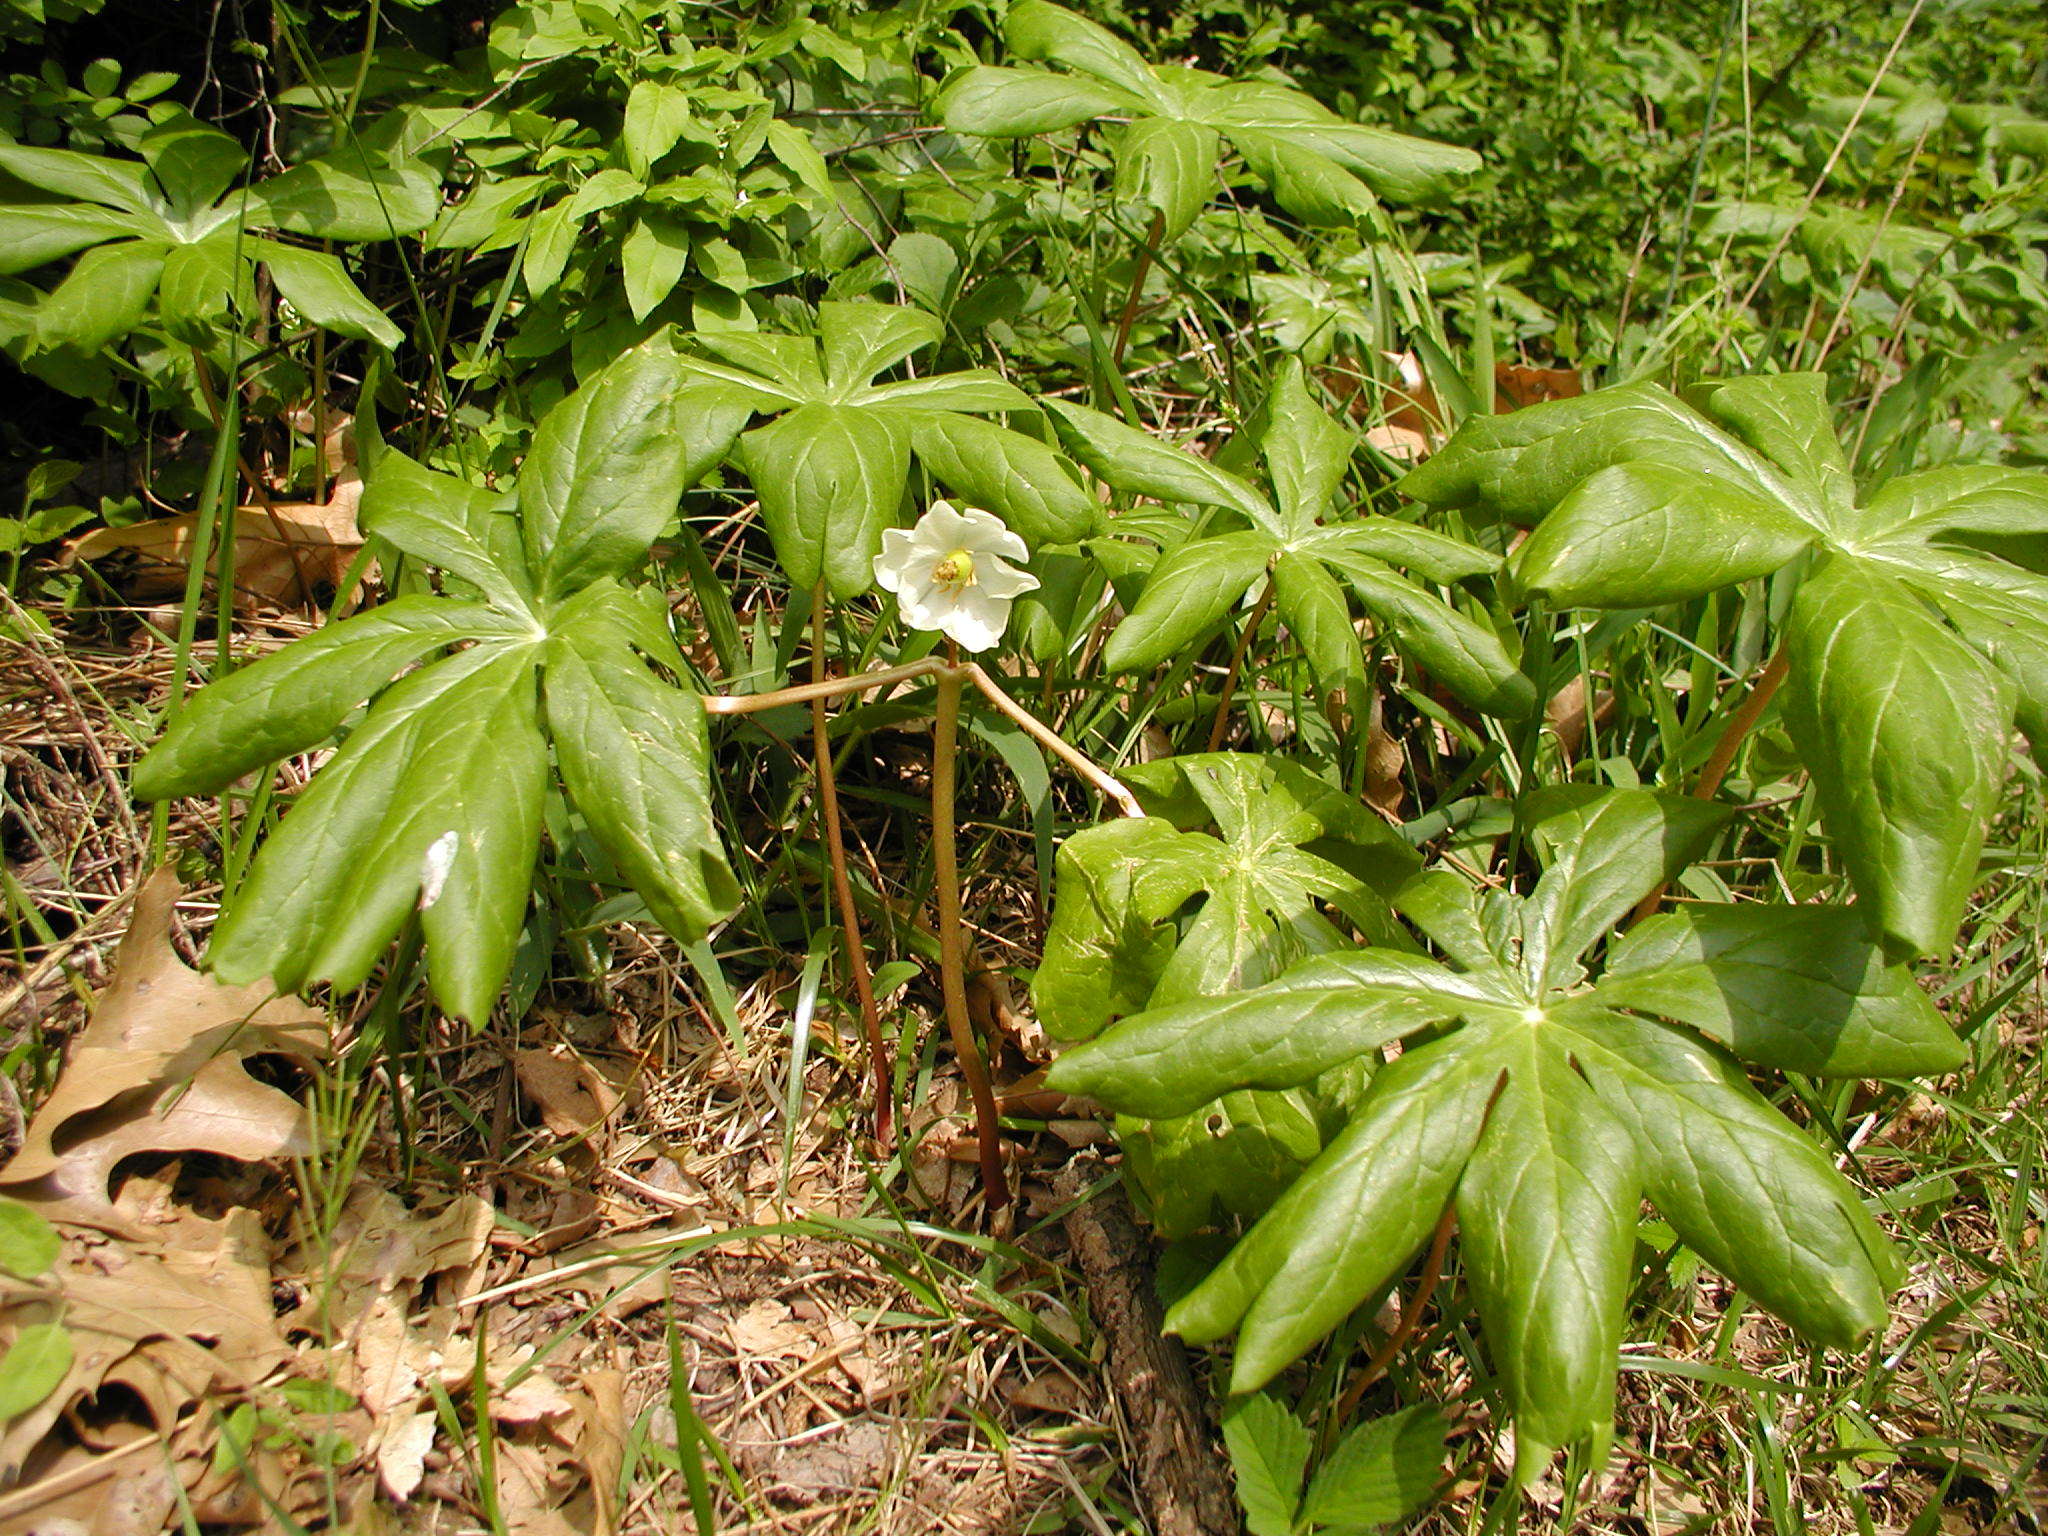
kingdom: Plantae
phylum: Tracheophyta
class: Magnoliopsida
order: Ranunculales
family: Berberidaceae
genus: Podophyllum
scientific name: Podophyllum peltatum
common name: Wild mandrake
